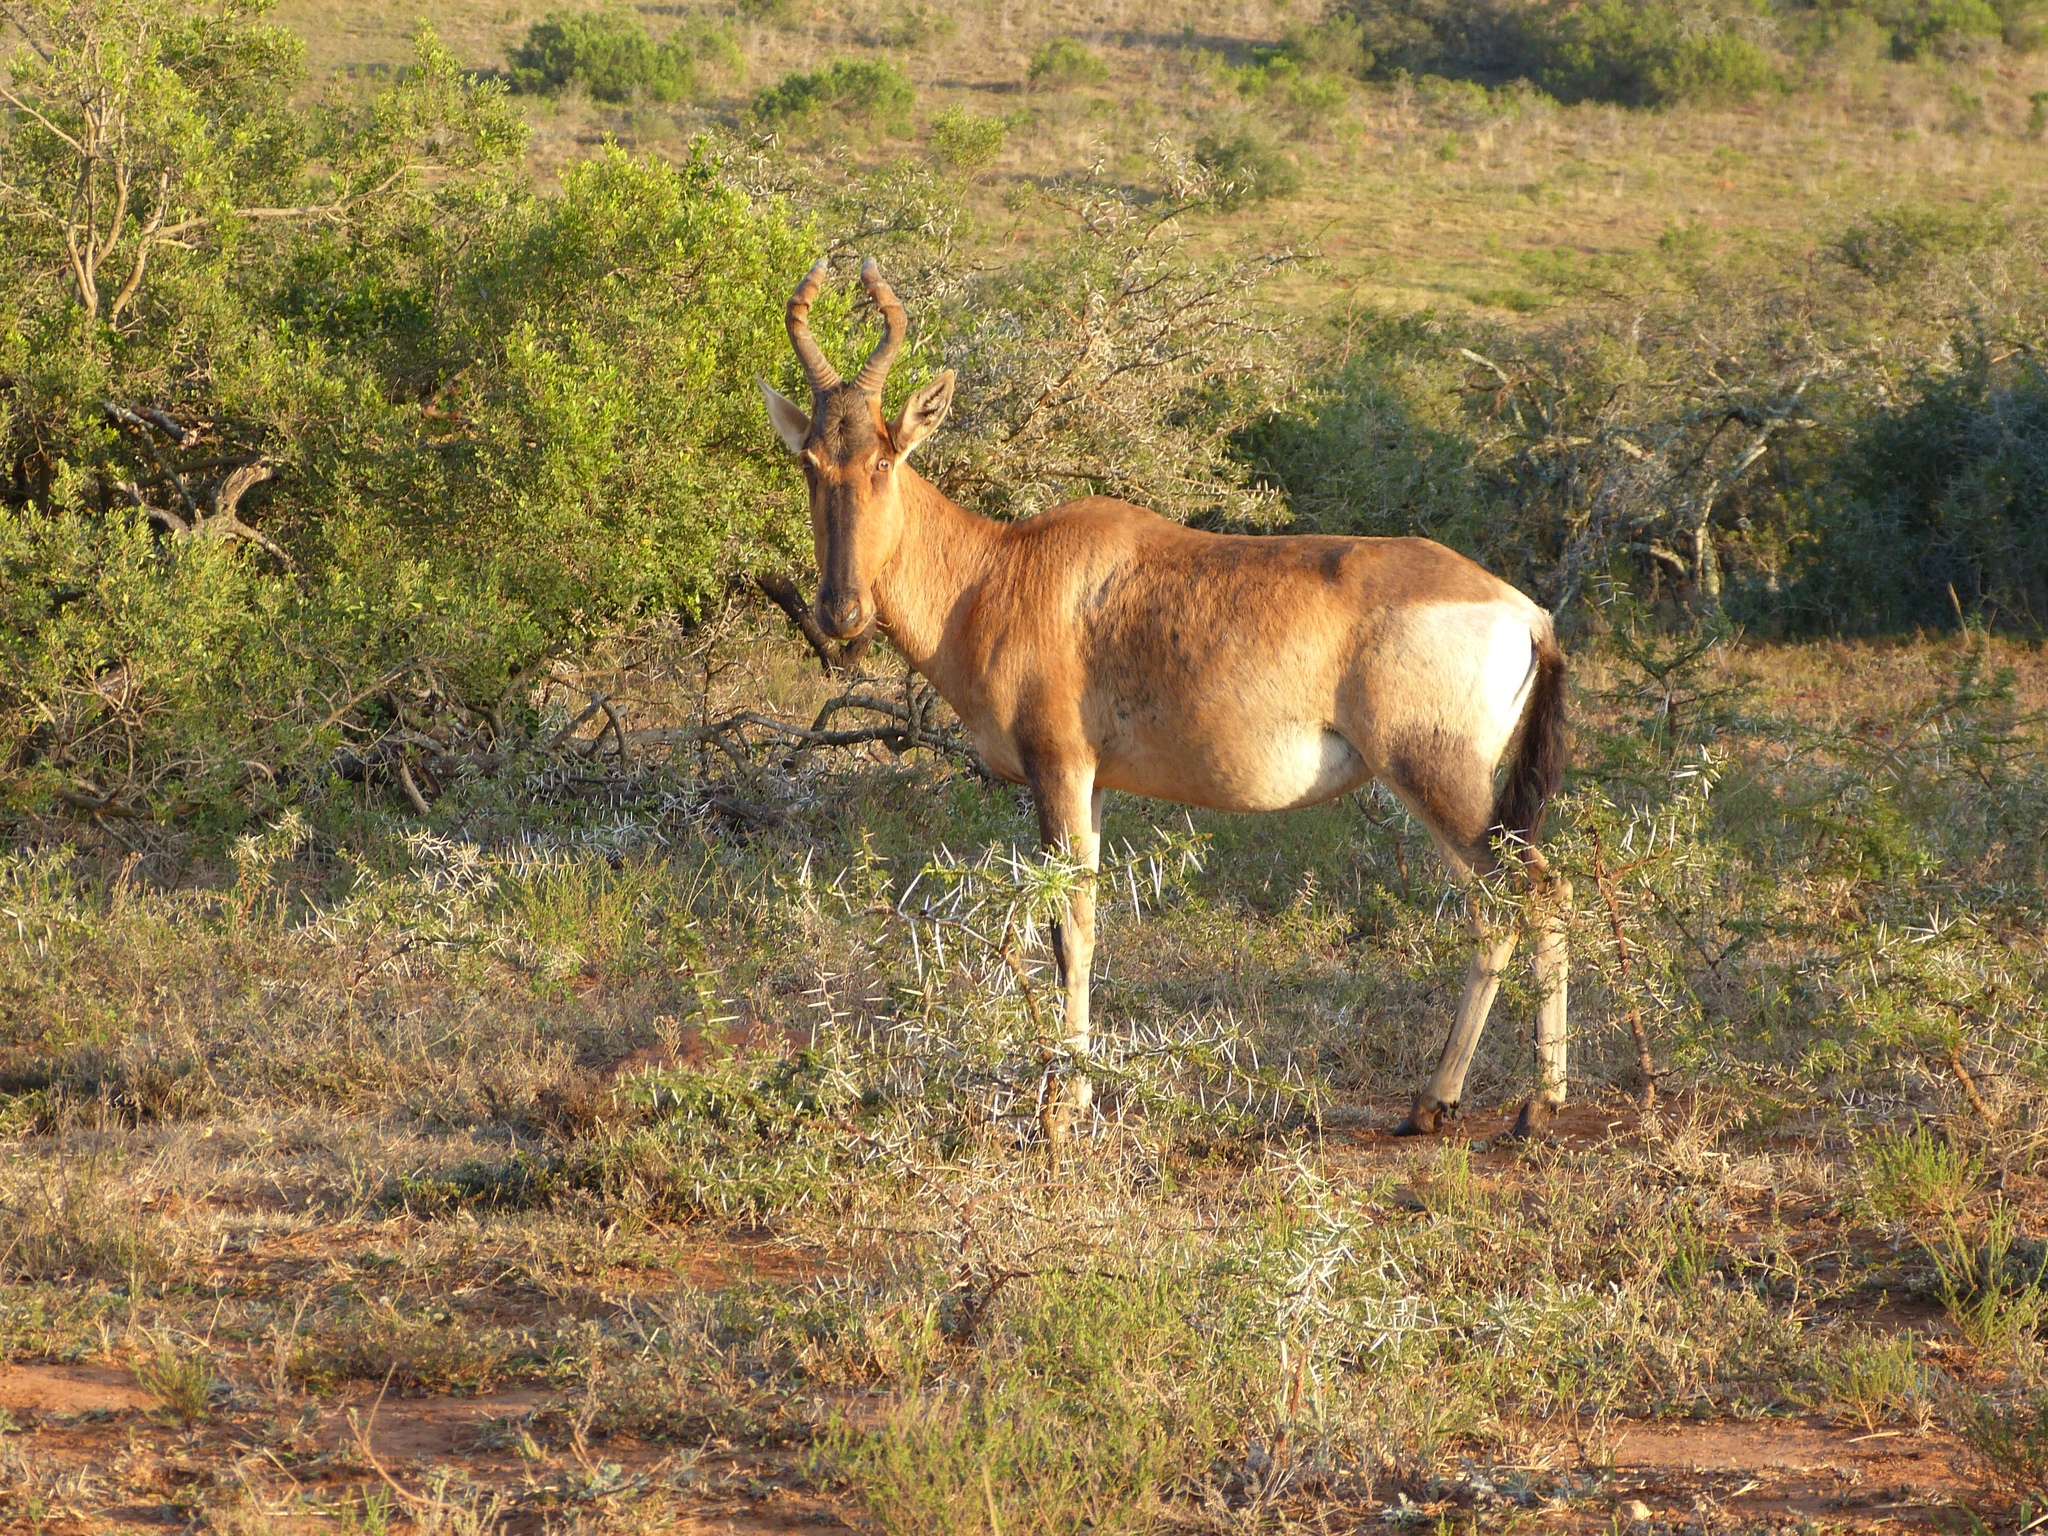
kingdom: Animalia
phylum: Chordata
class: Mammalia
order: Artiodactyla
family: Bovidae
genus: Alcelaphus
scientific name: Alcelaphus caama
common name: Red hartebeest
